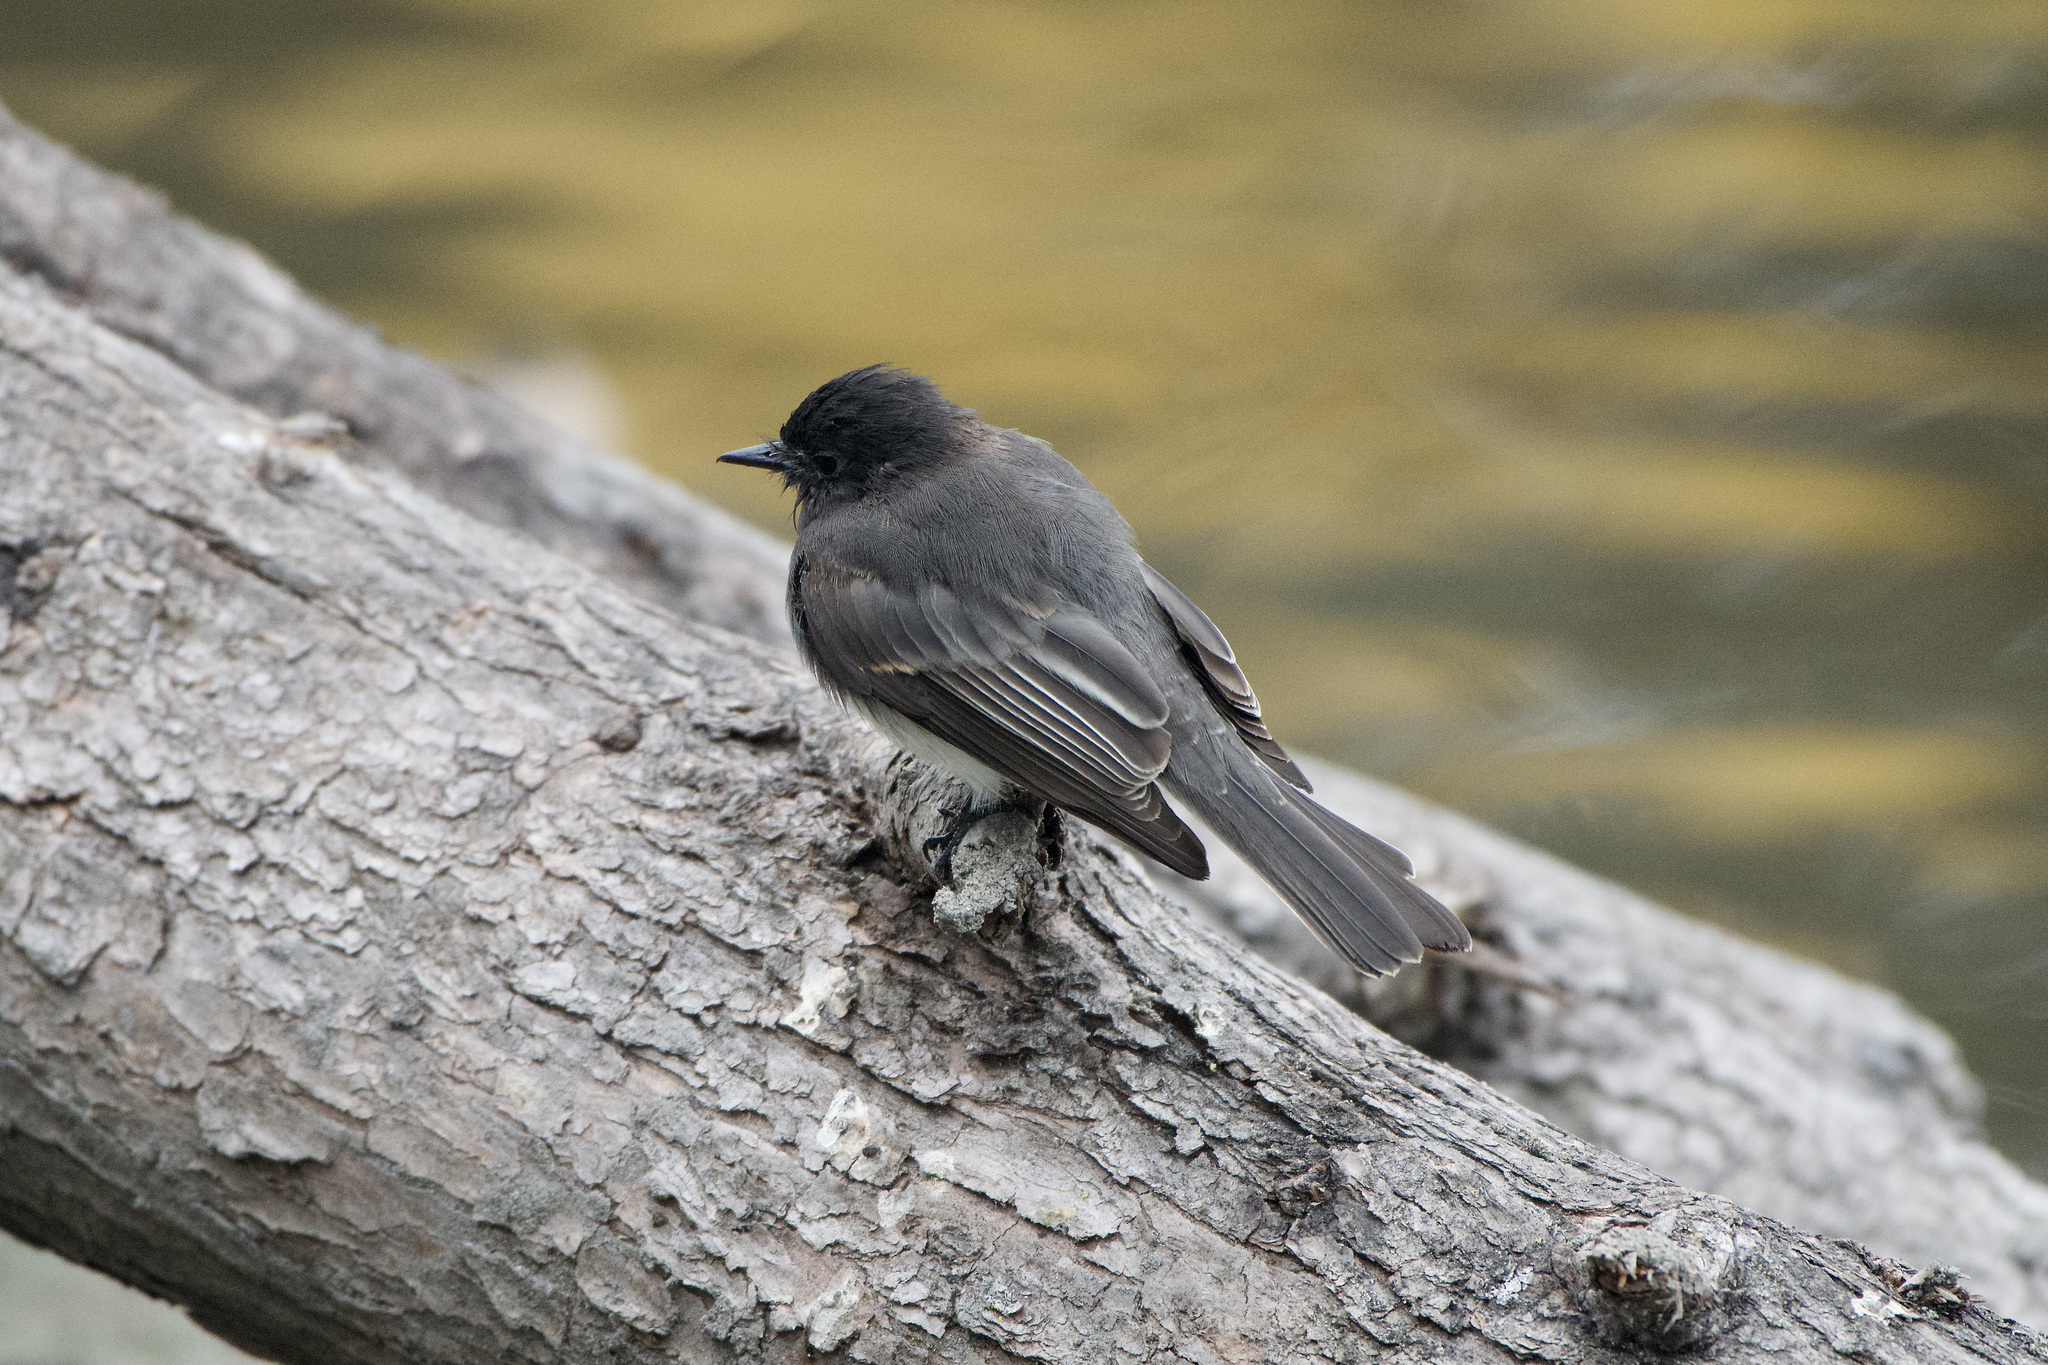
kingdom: Animalia
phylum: Chordata
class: Aves
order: Passeriformes
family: Tyrannidae
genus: Sayornis
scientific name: Sayornis nigricans
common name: Black phoebe
